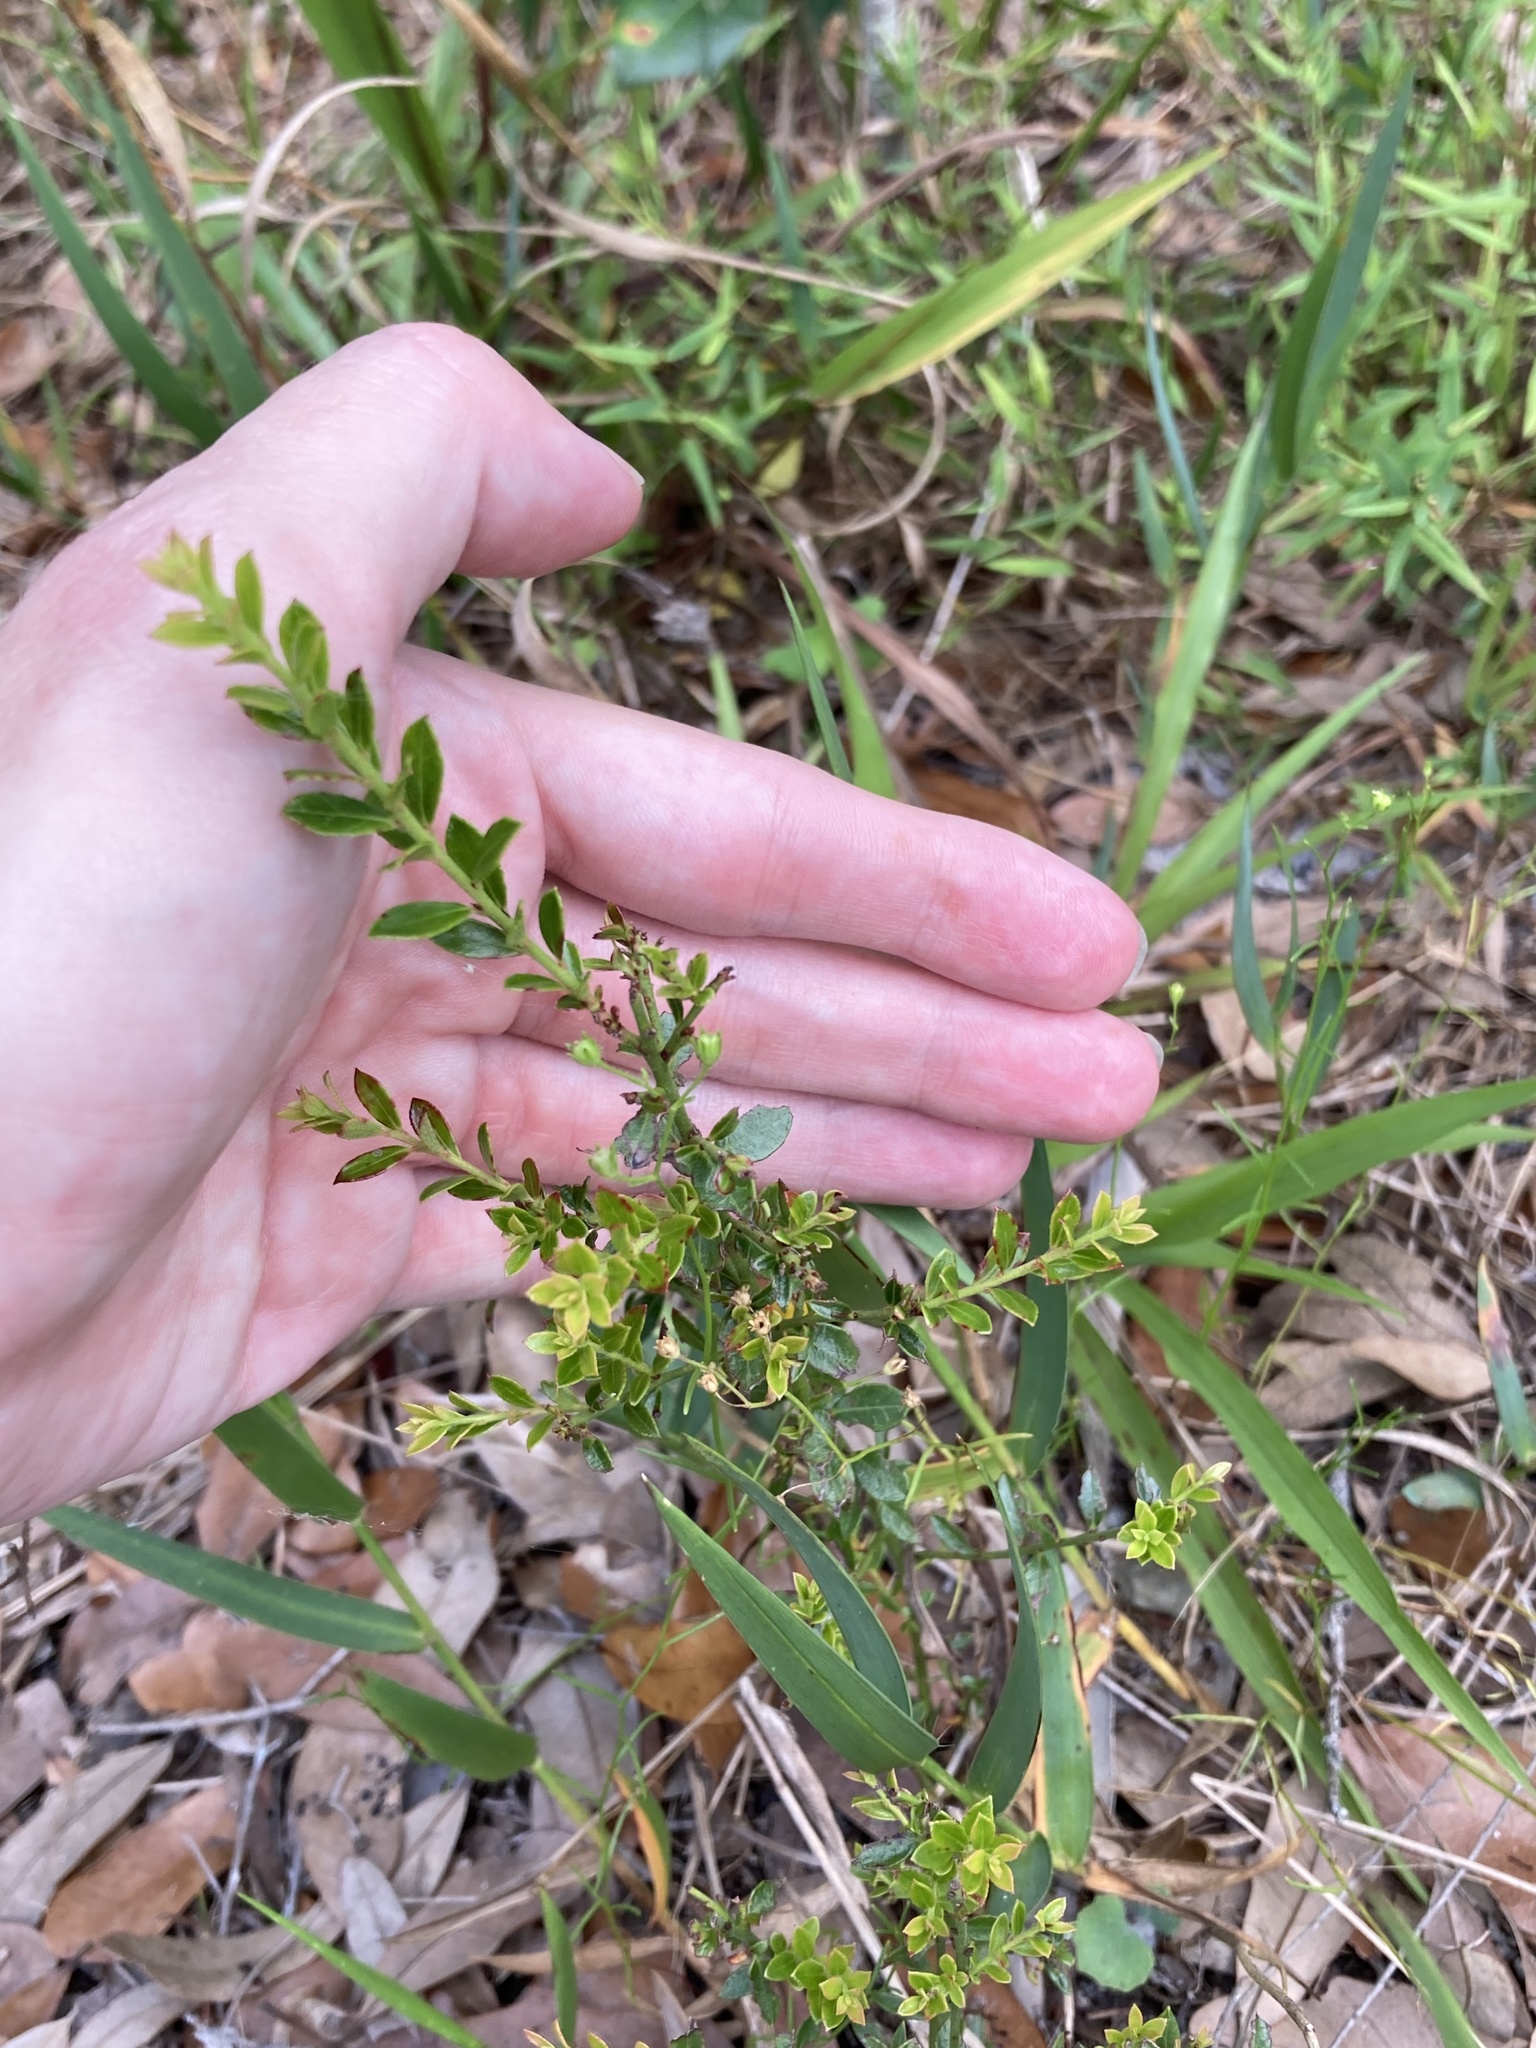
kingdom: Plantae
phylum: Tracheophyta
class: Magnoliopsida
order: Ericales
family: Ericaceae
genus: Vaccinium
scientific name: Vaccinium myrsinites
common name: Evergreen blueberry
